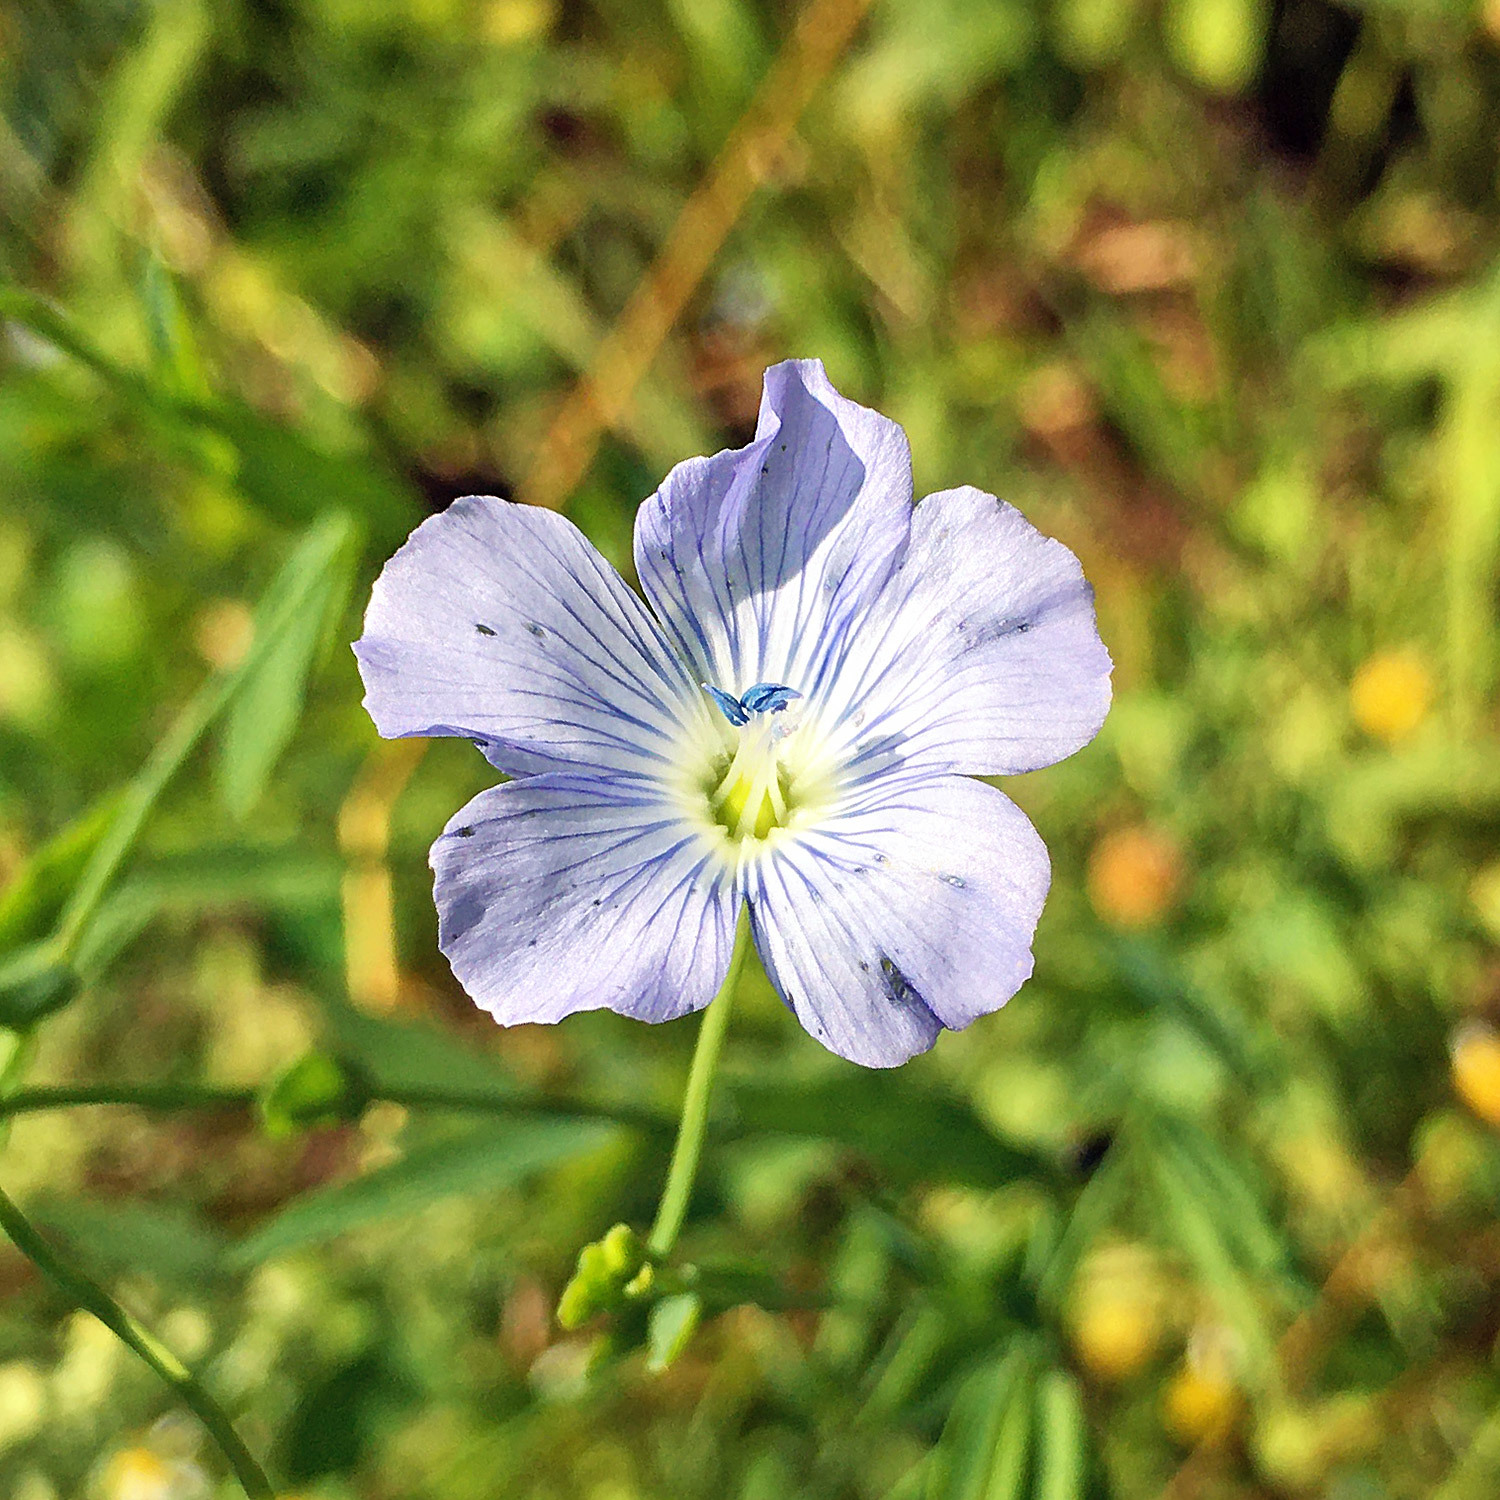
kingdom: Plantae
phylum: Tracheophyta
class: Magnoliopsida
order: Malpighiales
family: Linaceae
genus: Linum
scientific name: Linum usitatissimum
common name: Flax
